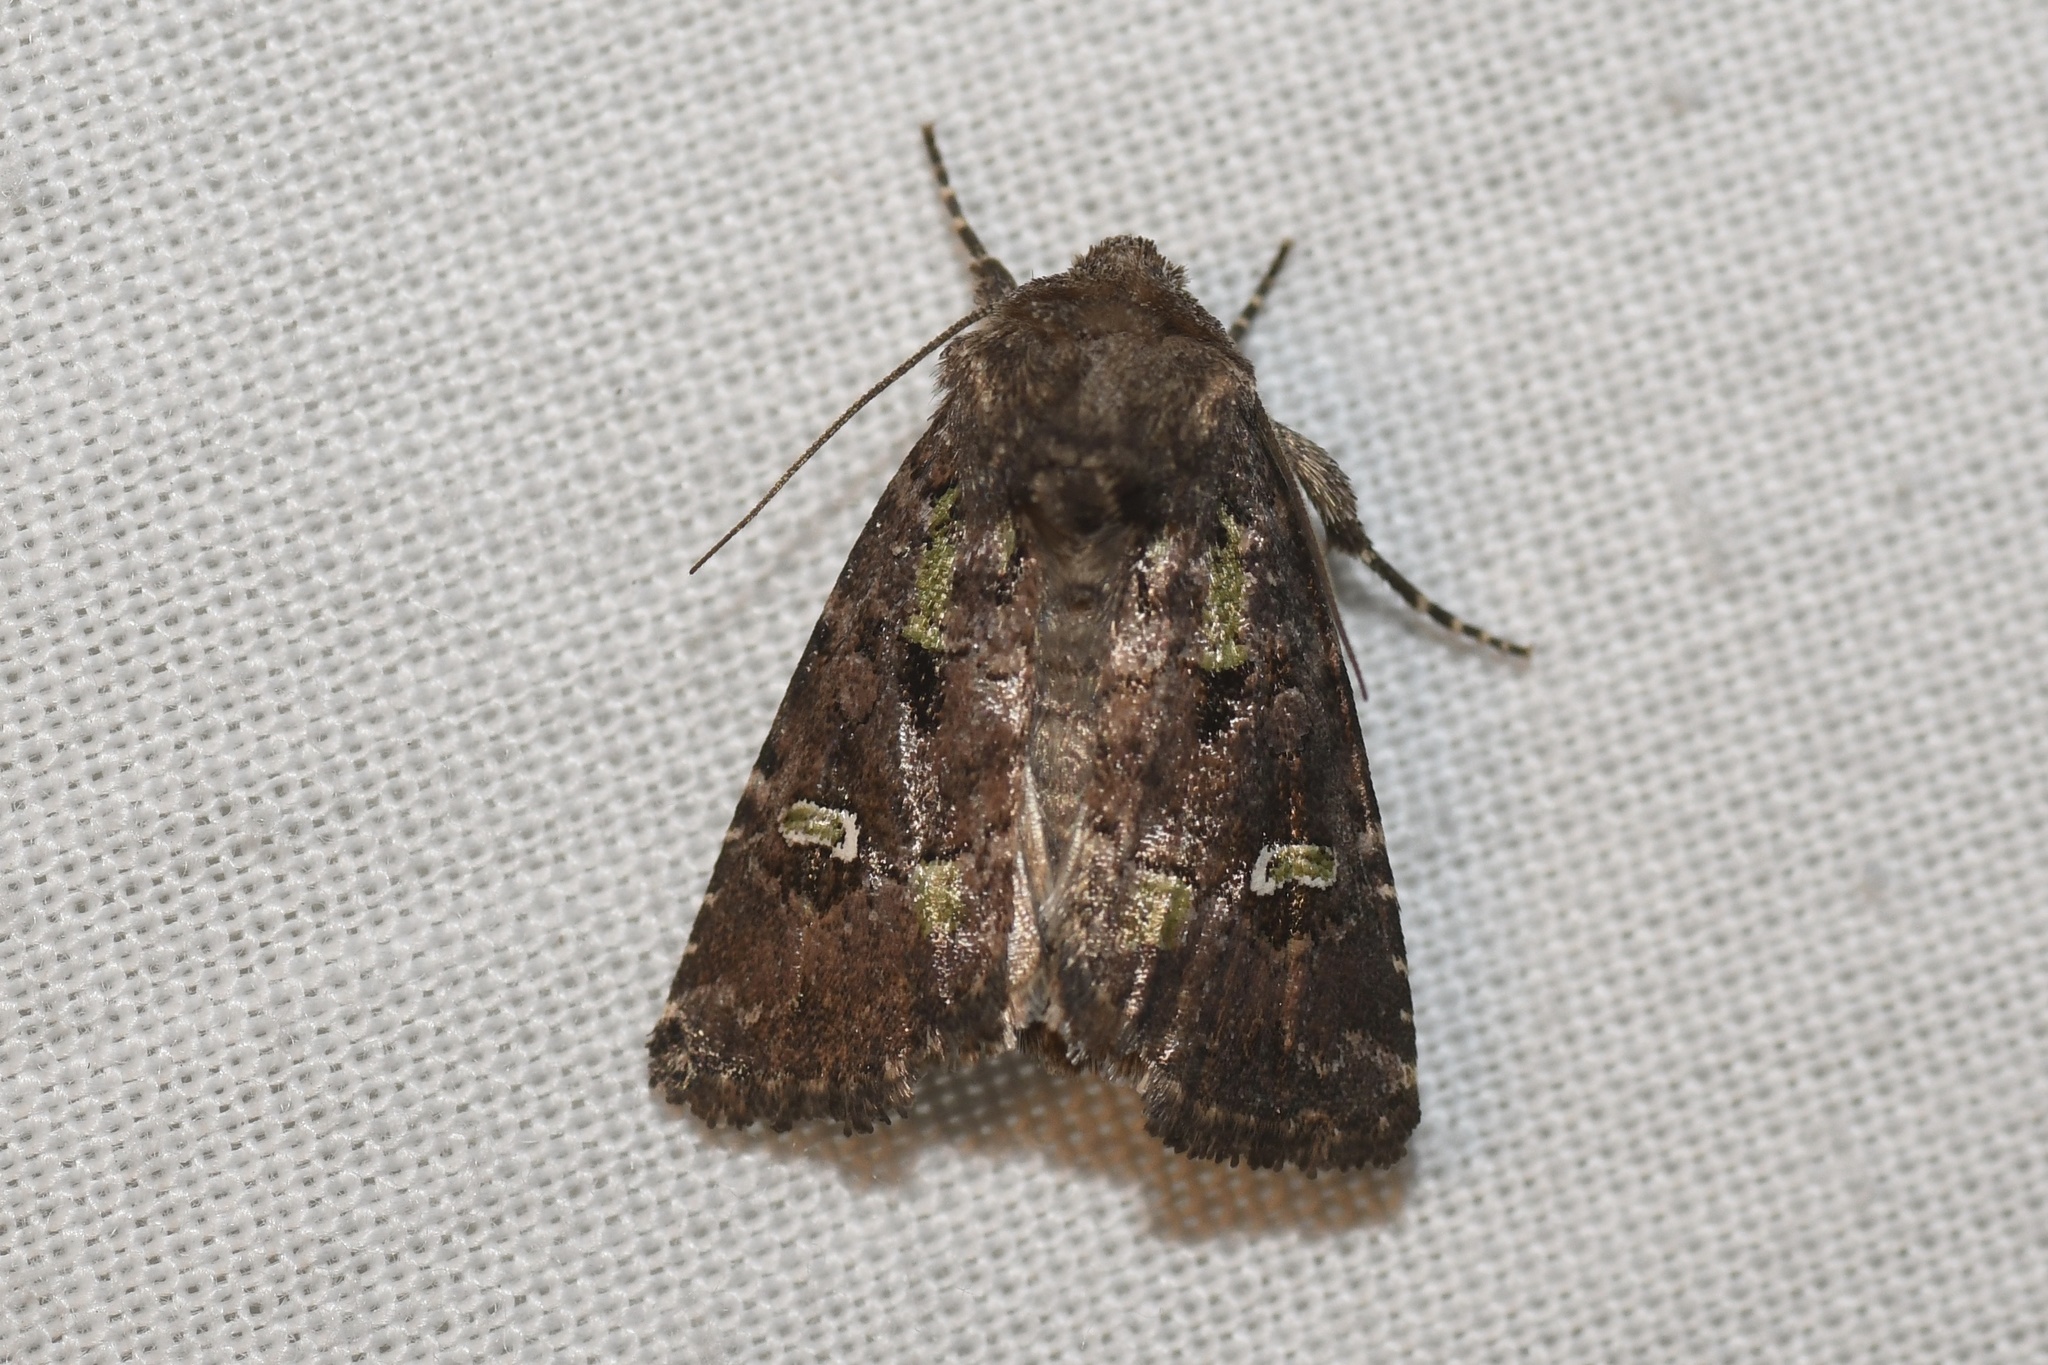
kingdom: Animalia
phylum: Arthropoda
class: Insecta
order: Lepidoptera
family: Noctuidae
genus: Lacinipolia
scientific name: Lacinipolia renigera
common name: Kidney-spotted minor
